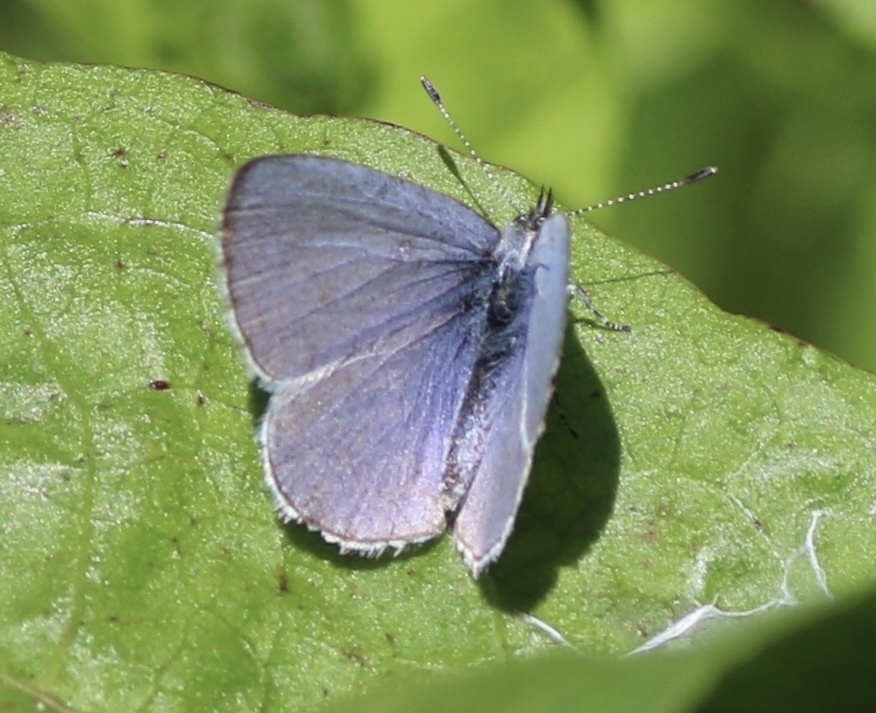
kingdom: Animalia
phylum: Arthropoda
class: Insecta
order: Lepidoptera
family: Lycaenidae
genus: Celastrina
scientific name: Celastrina ladon
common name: Spring azure
